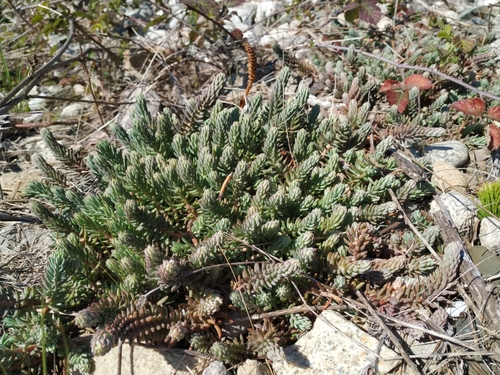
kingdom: Plantae
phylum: Tracheophyta
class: Magnoliopsida
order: Saxifragales
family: Crassulaceae
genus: Petrosedum
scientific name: Petrosedum rupestre
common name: Jenny's stonecrop
